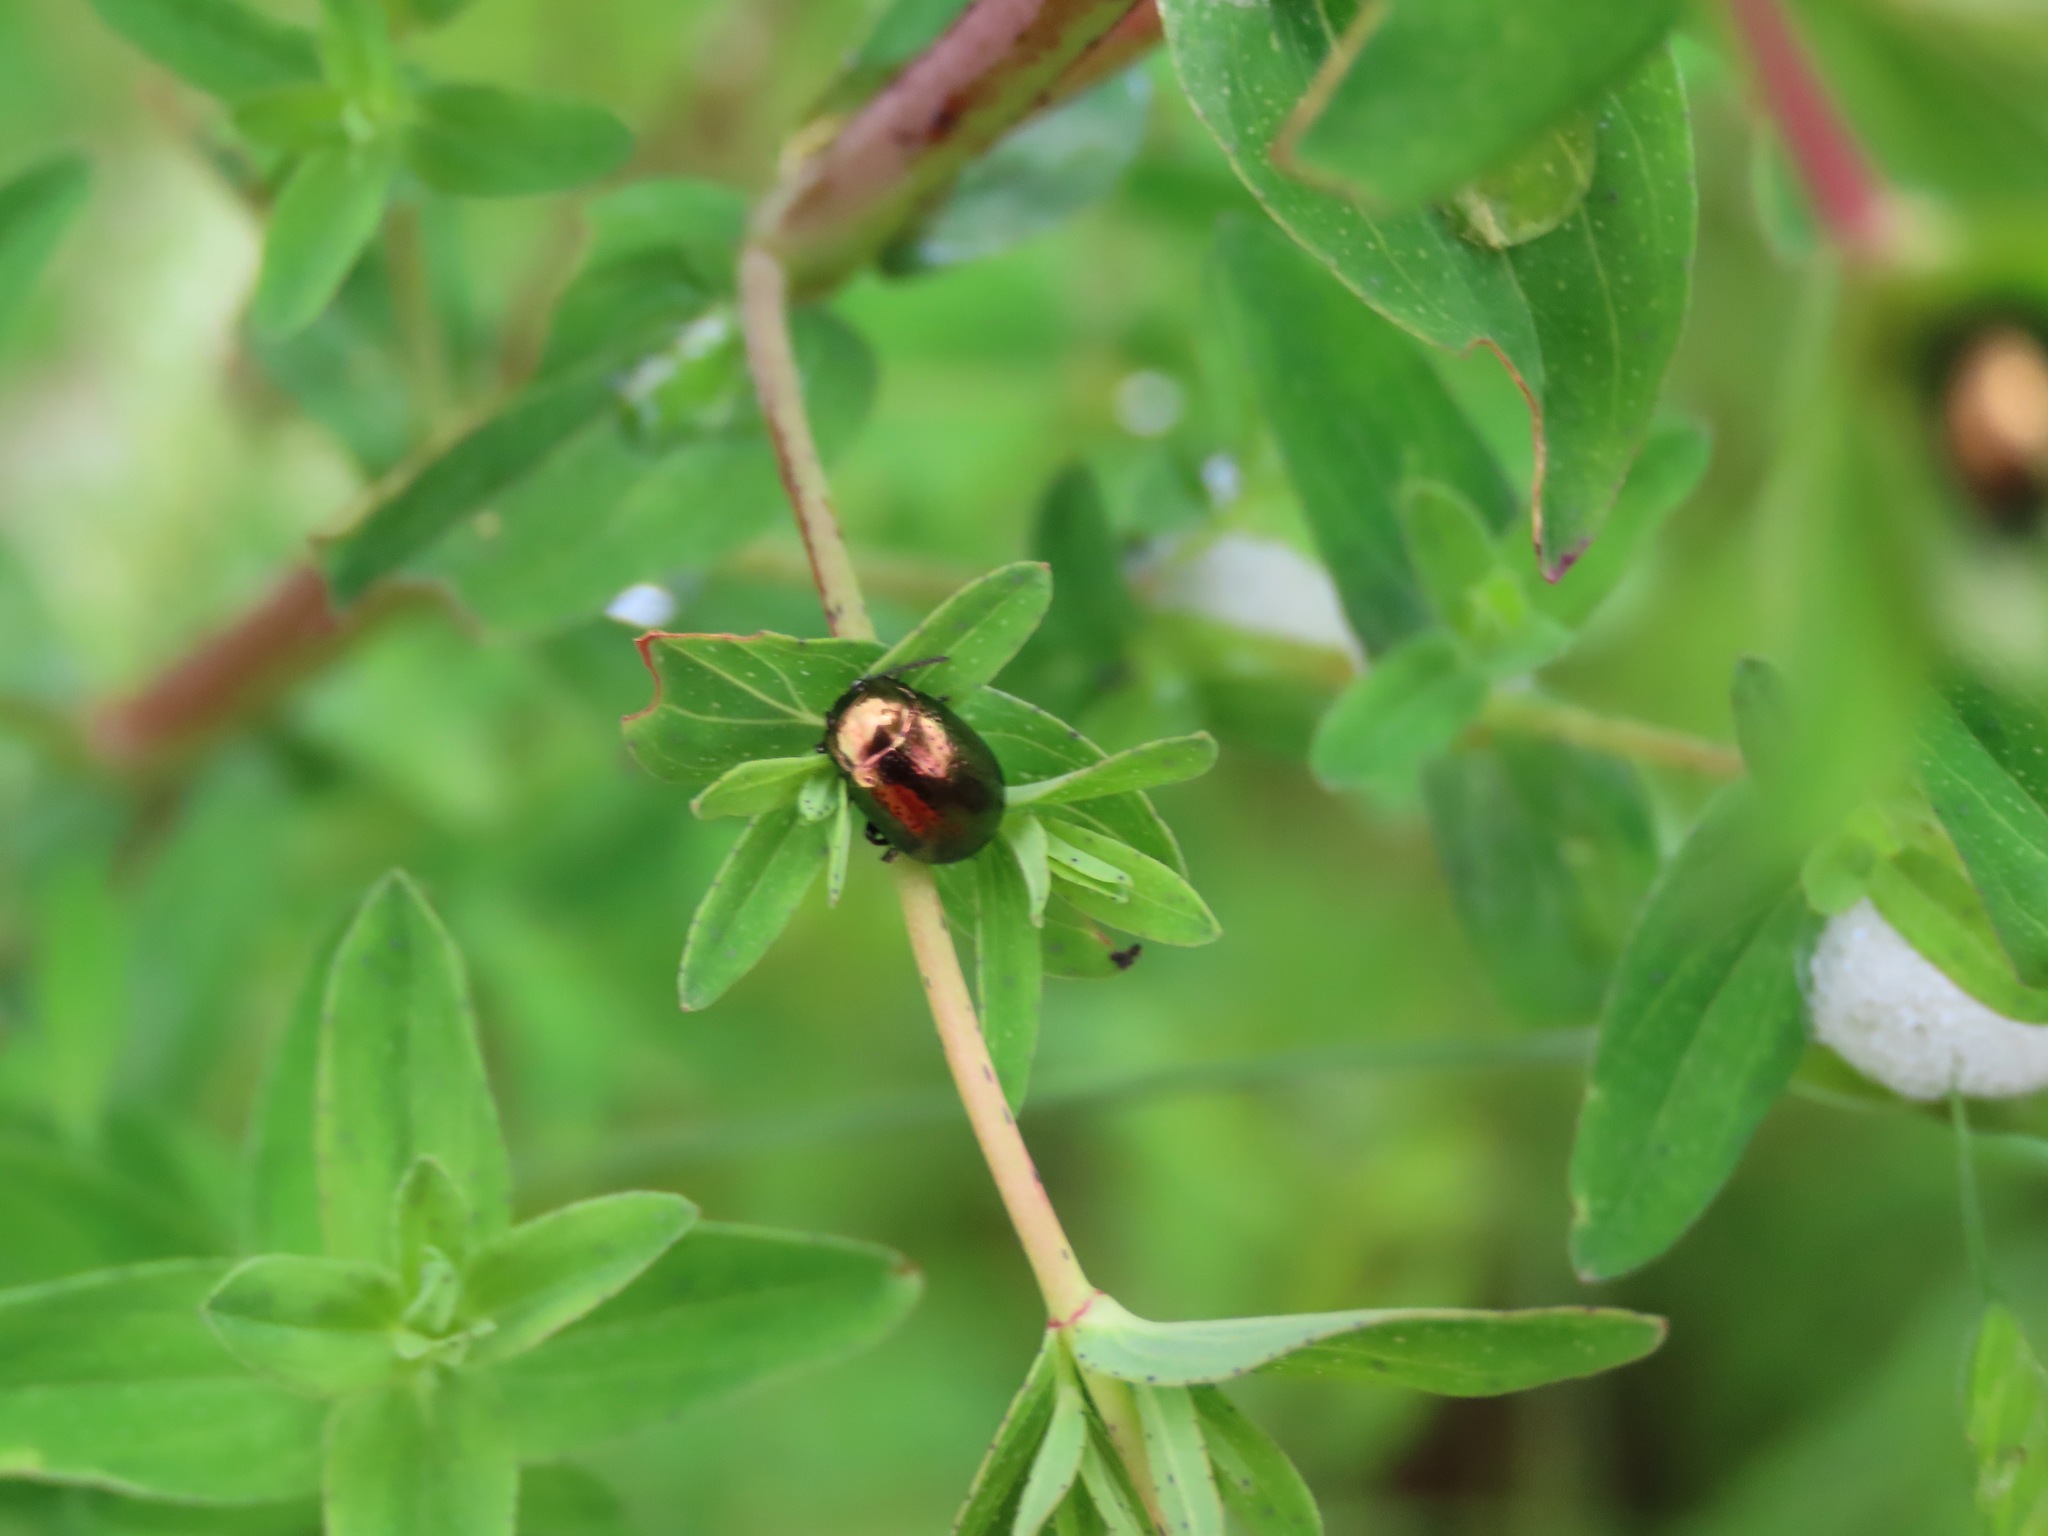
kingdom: Animalia
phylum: Arthropoda
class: Insecta
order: Coleoptera
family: Chrysomelidae
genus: Chrysolina
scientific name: Chrysolina hyperici
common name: St. johnswort beetle
